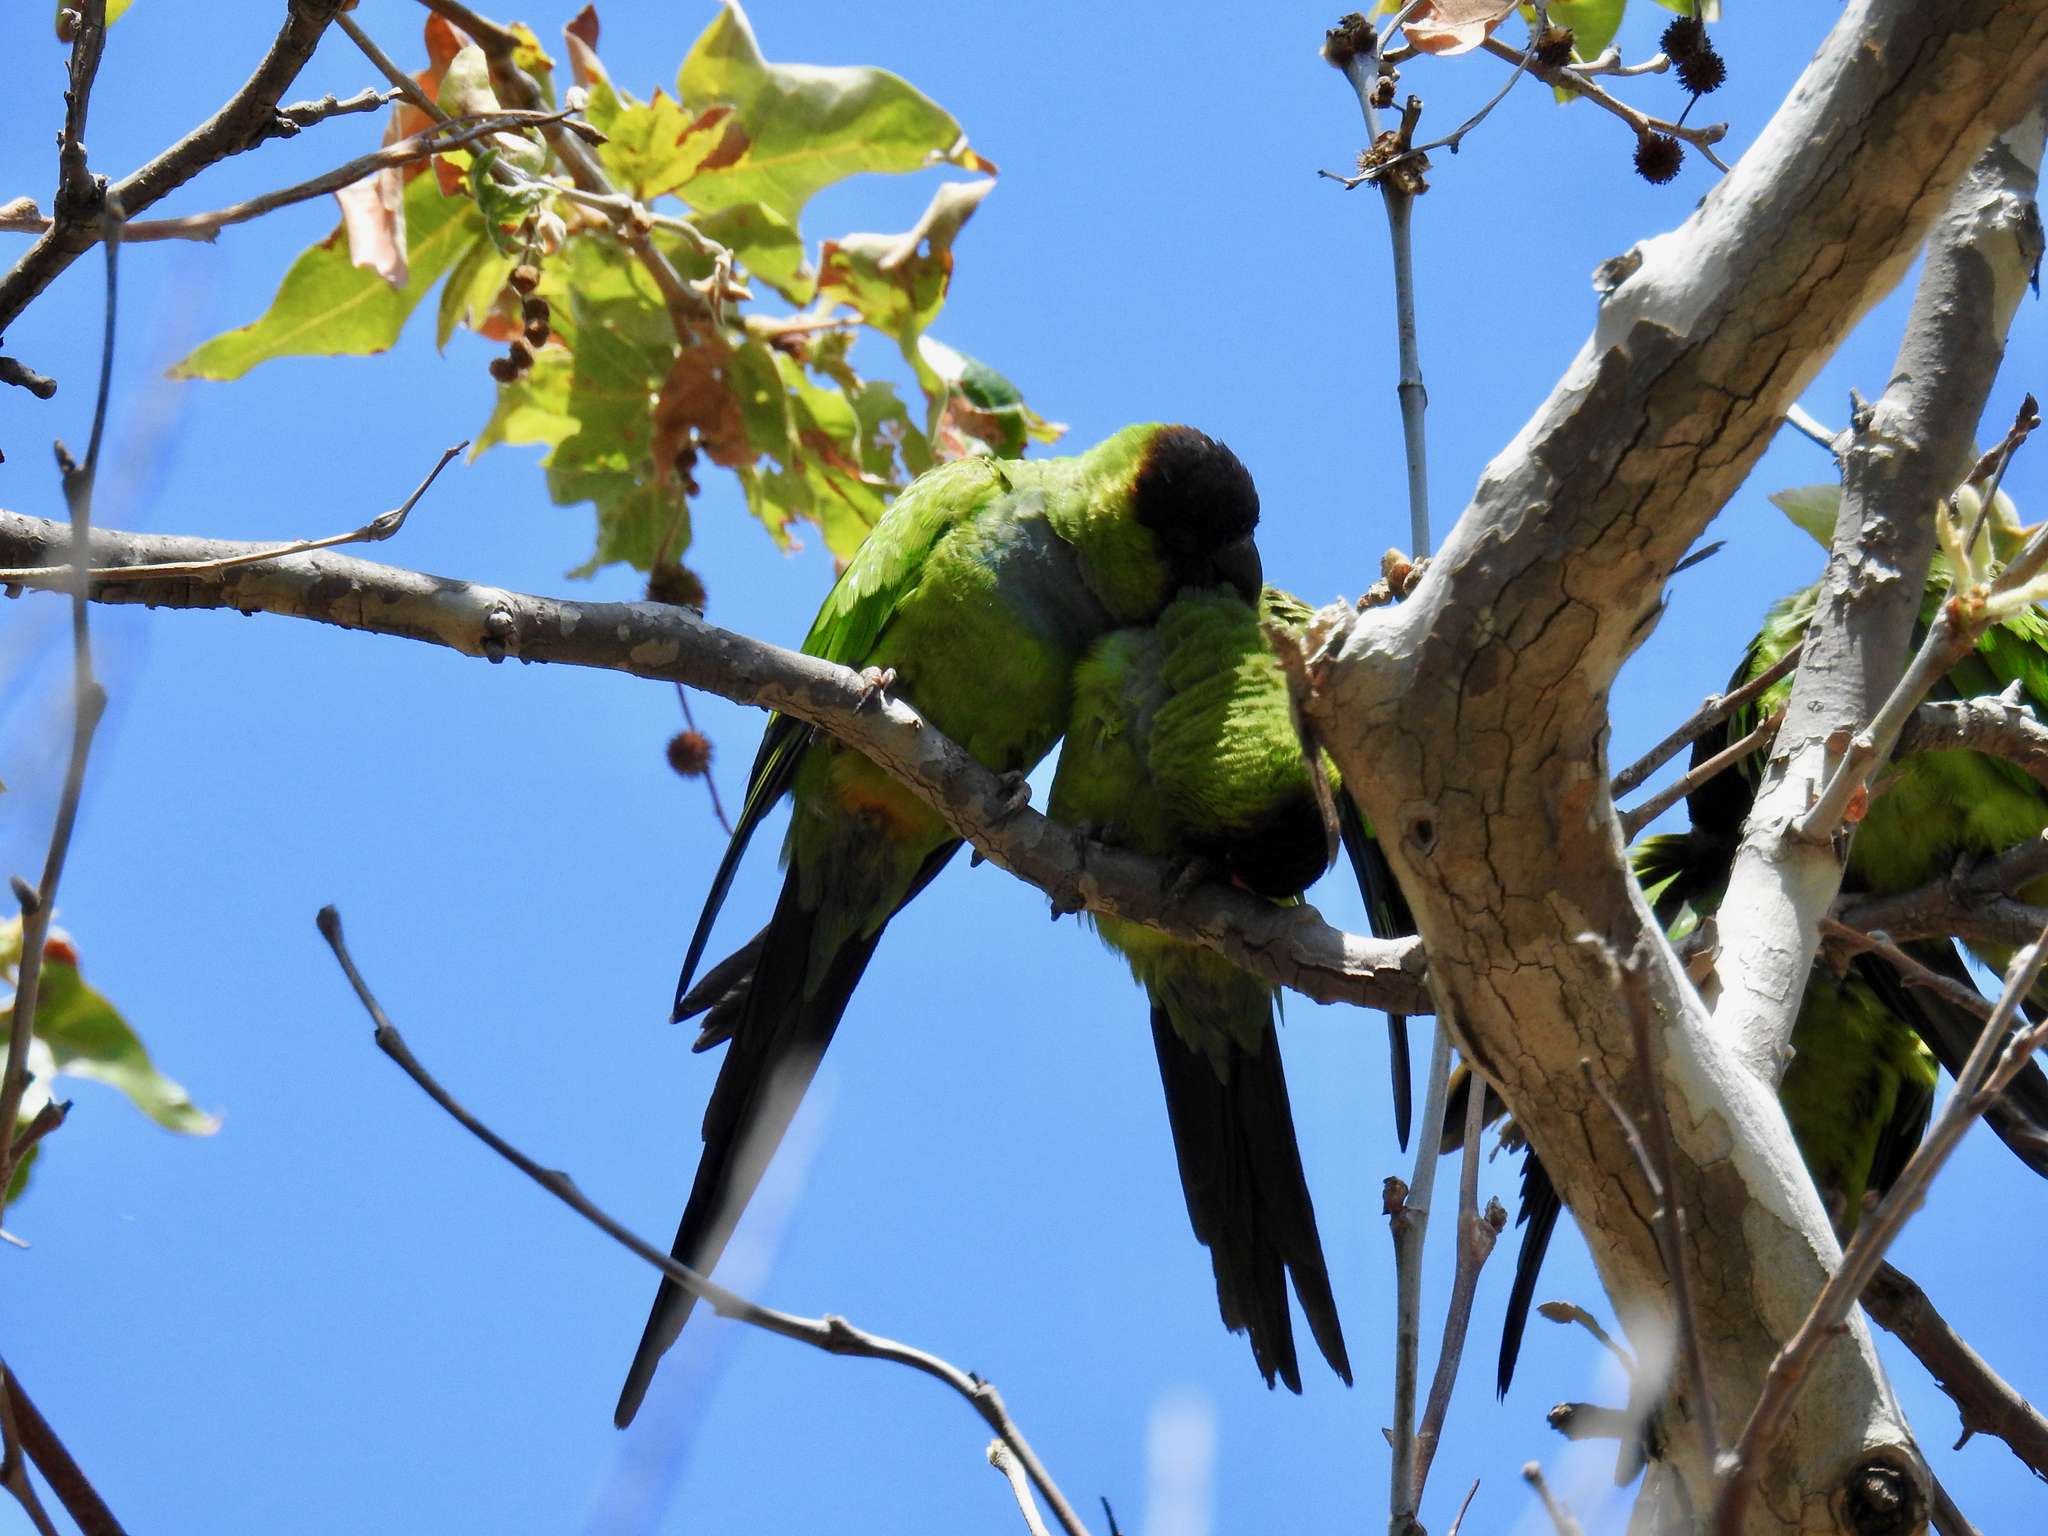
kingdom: Animalia
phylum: Chordata
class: Aves
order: Psittaciformes
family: Psittacidae
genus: Nandayus
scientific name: Nandayus nenday
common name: Nanday parakeet
